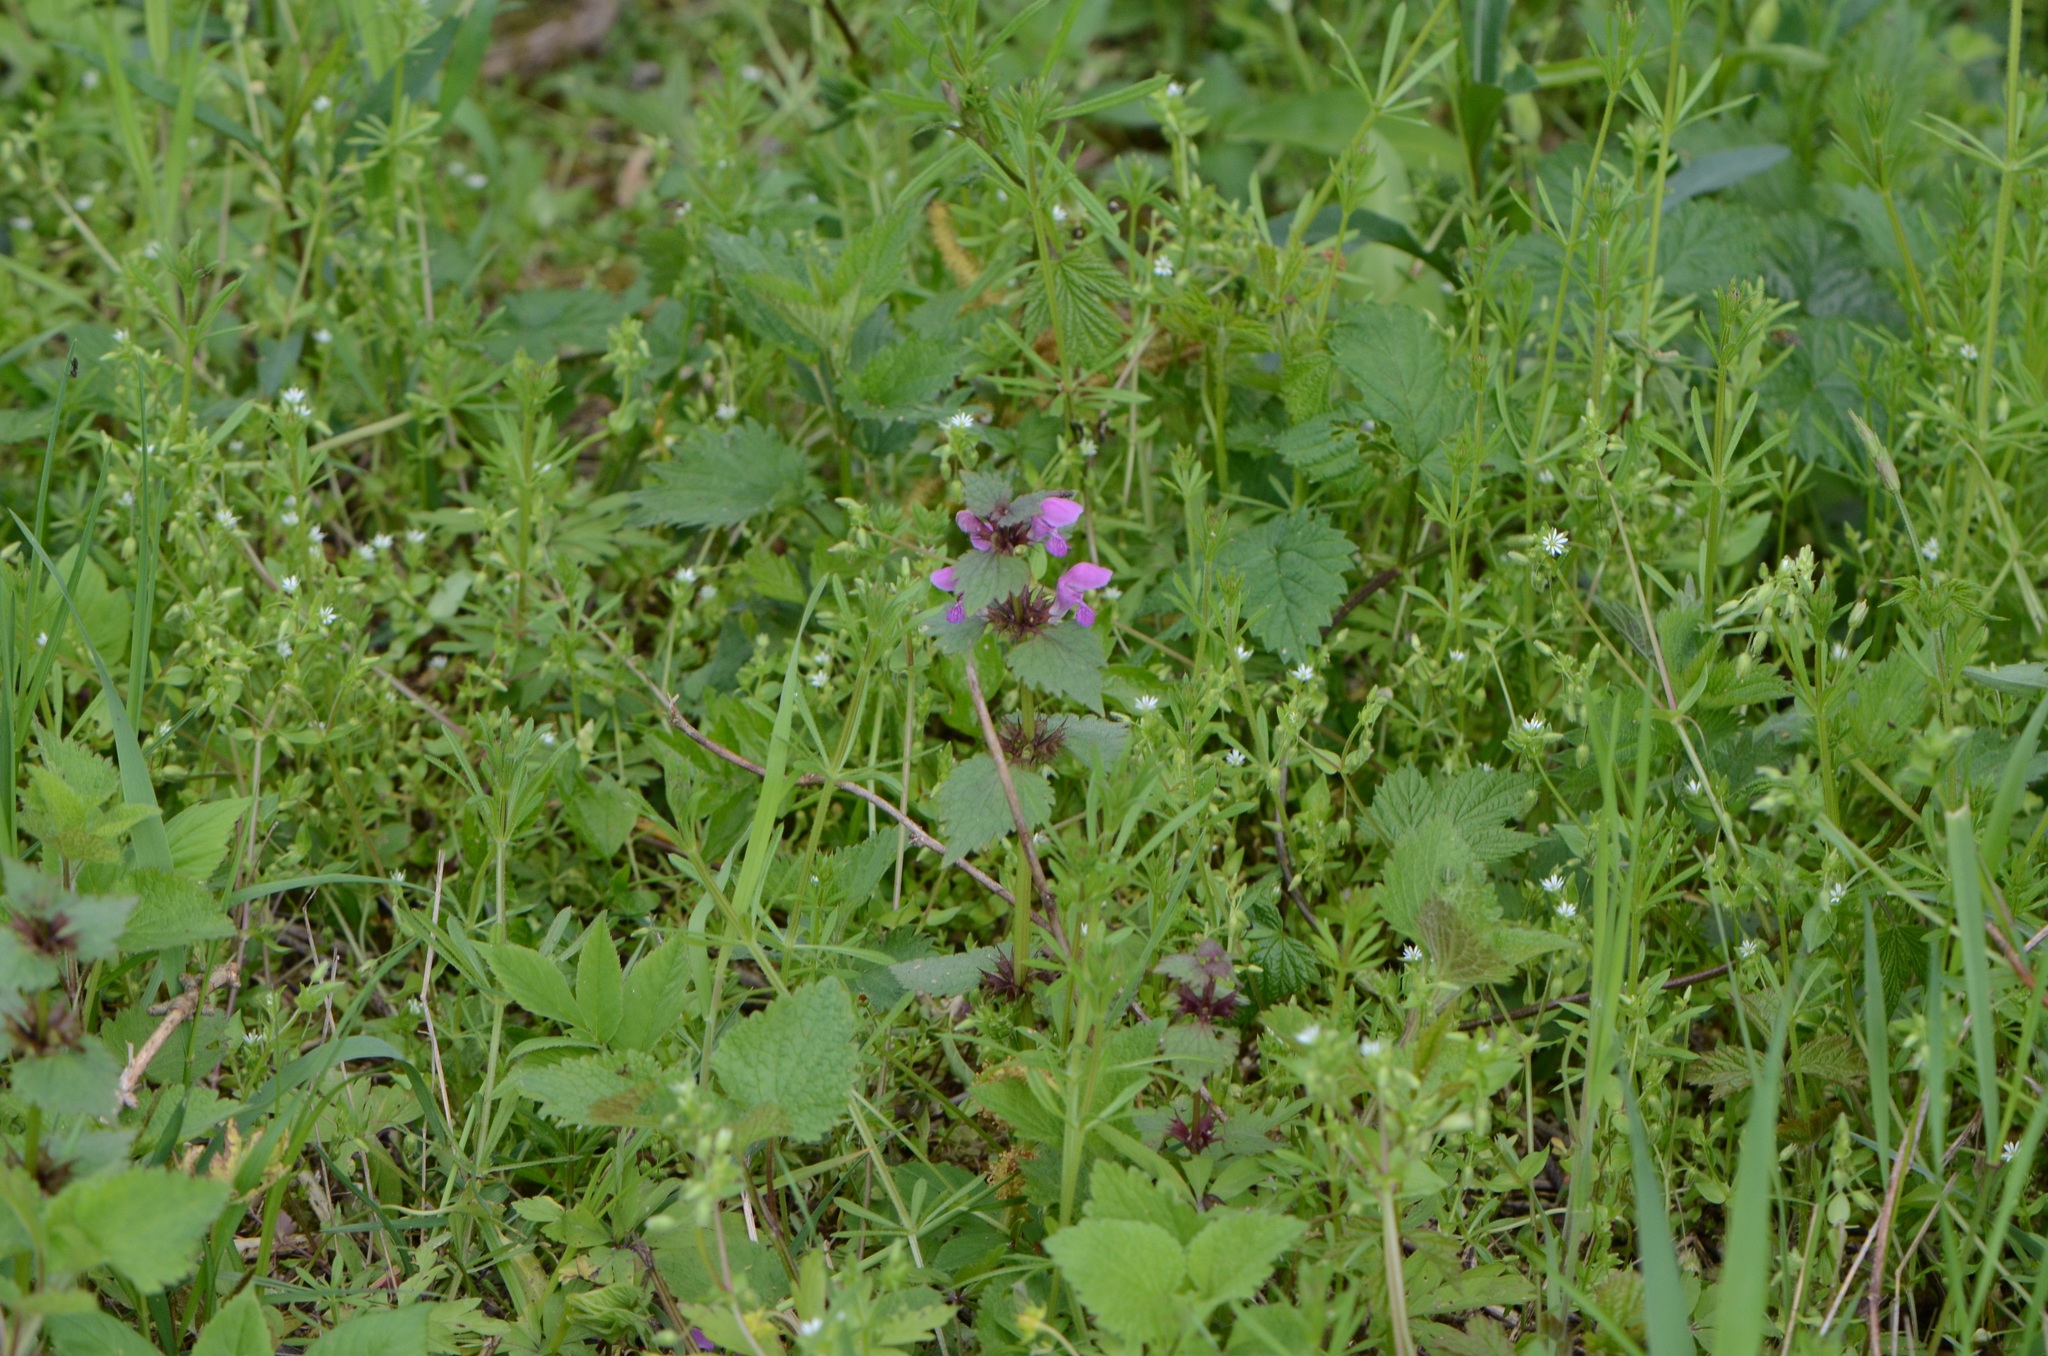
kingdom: Plantae
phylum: Tracheophyta
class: Magnoliopsida
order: Lamiales
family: Lamiaceae
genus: Lamium
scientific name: Lamium purpureum
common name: Red dead-nettle
